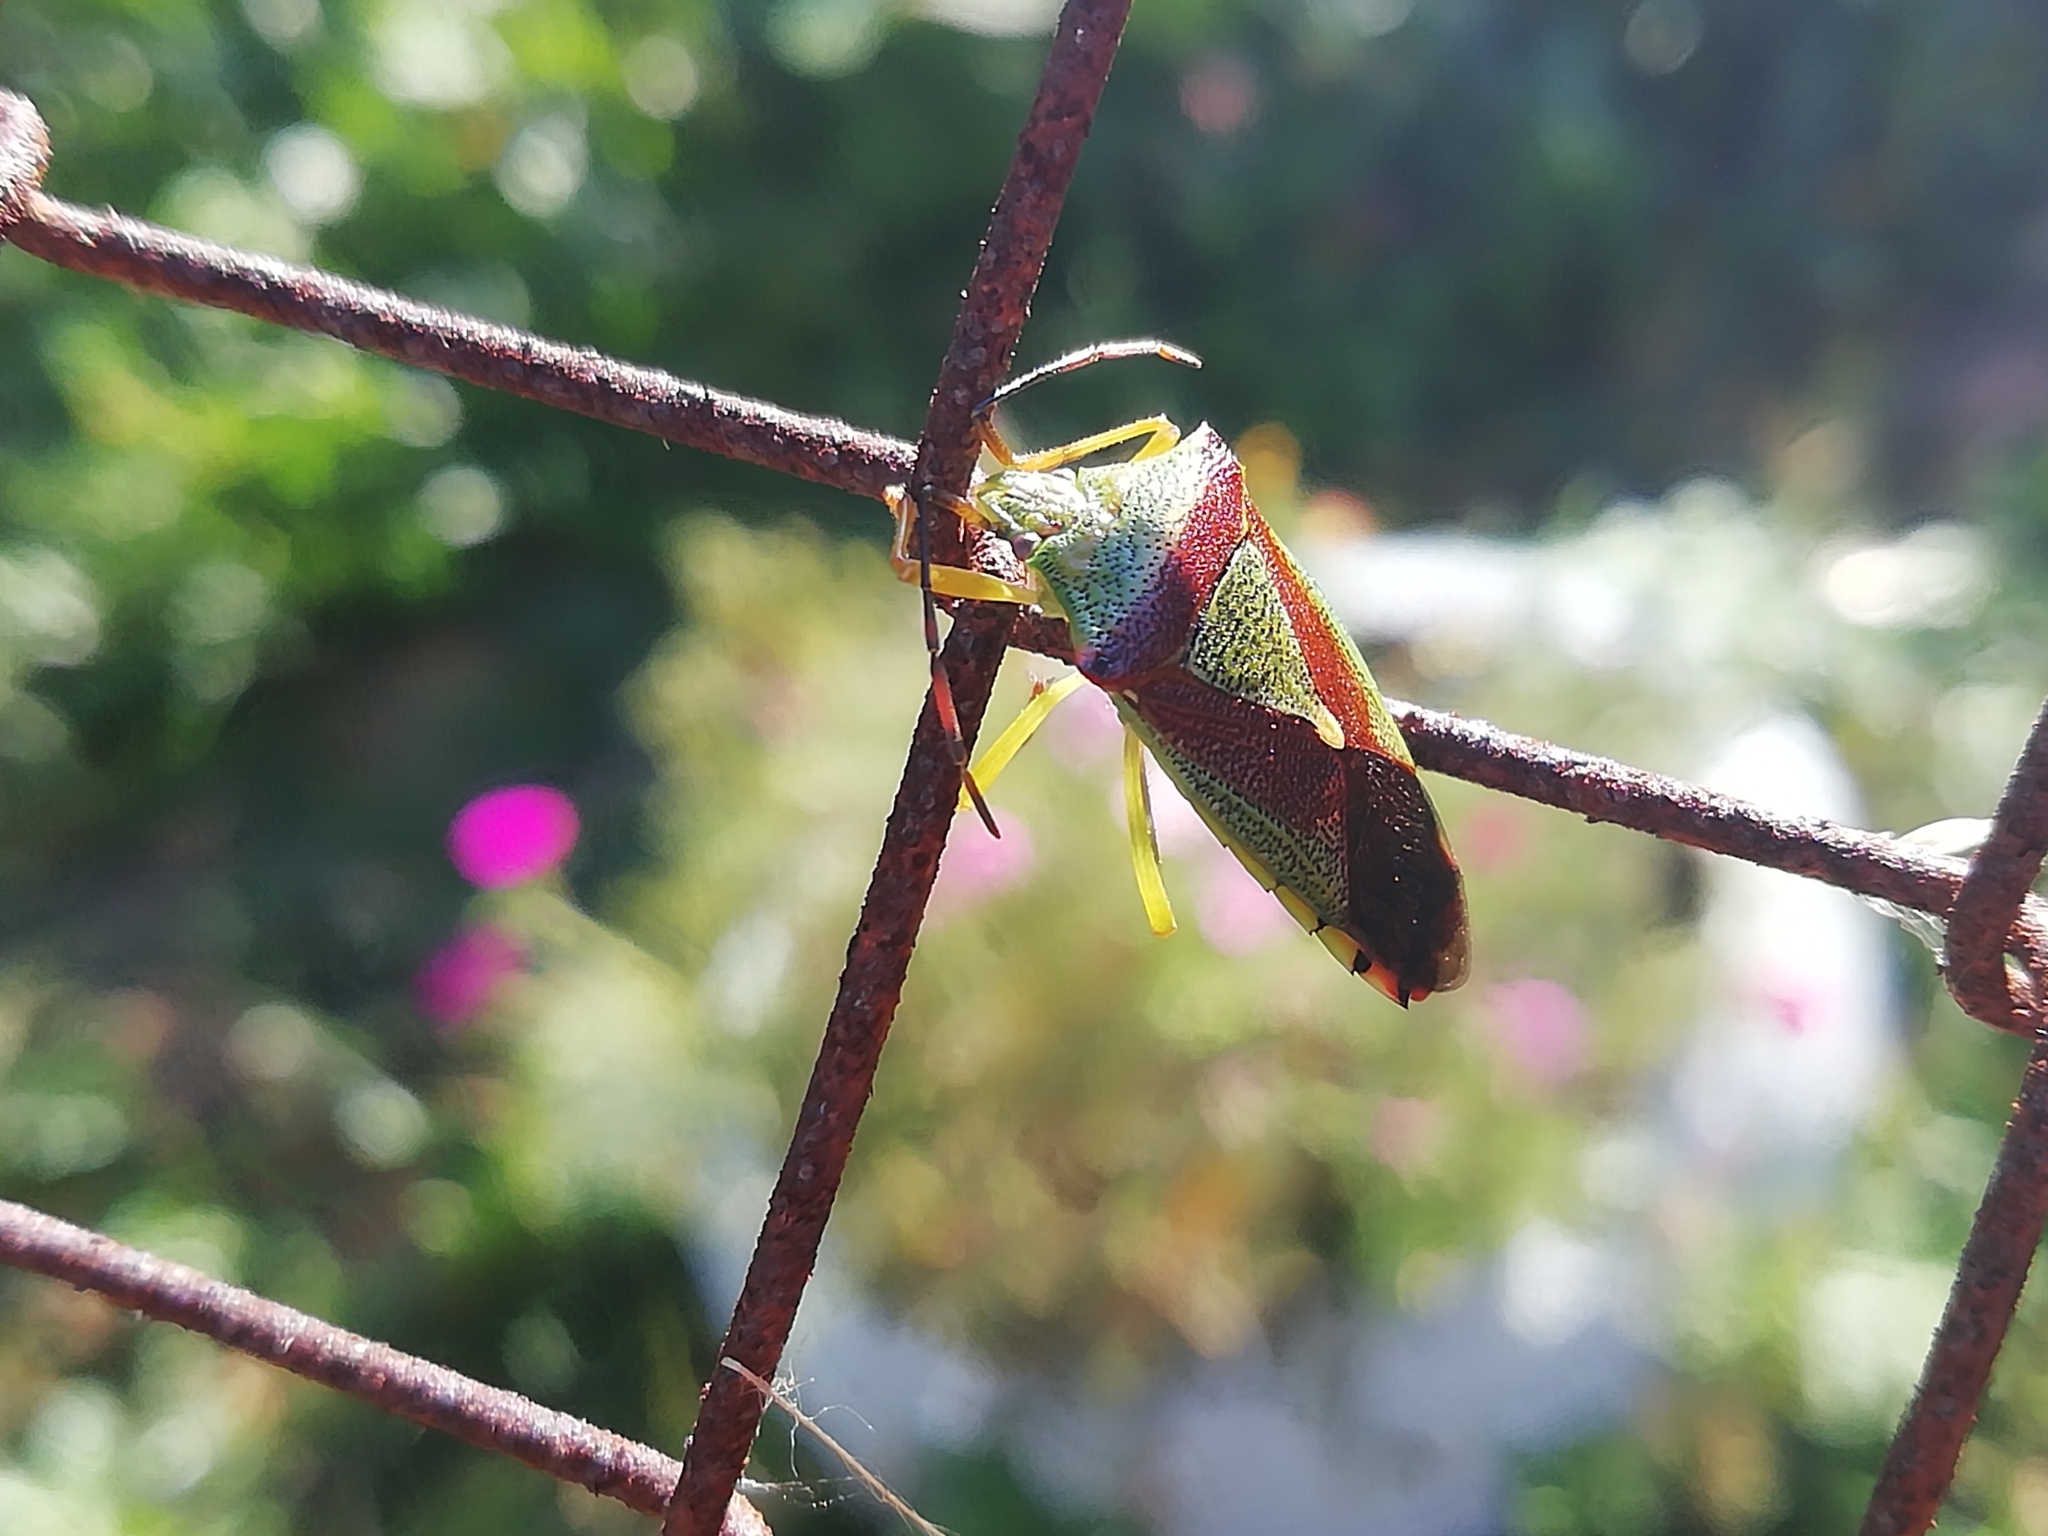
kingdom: Animalia
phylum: Arthropoda
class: Insecta
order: Hemiptera
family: Acanthosomatidae
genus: Acanthosoma
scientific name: Acanthosoma
